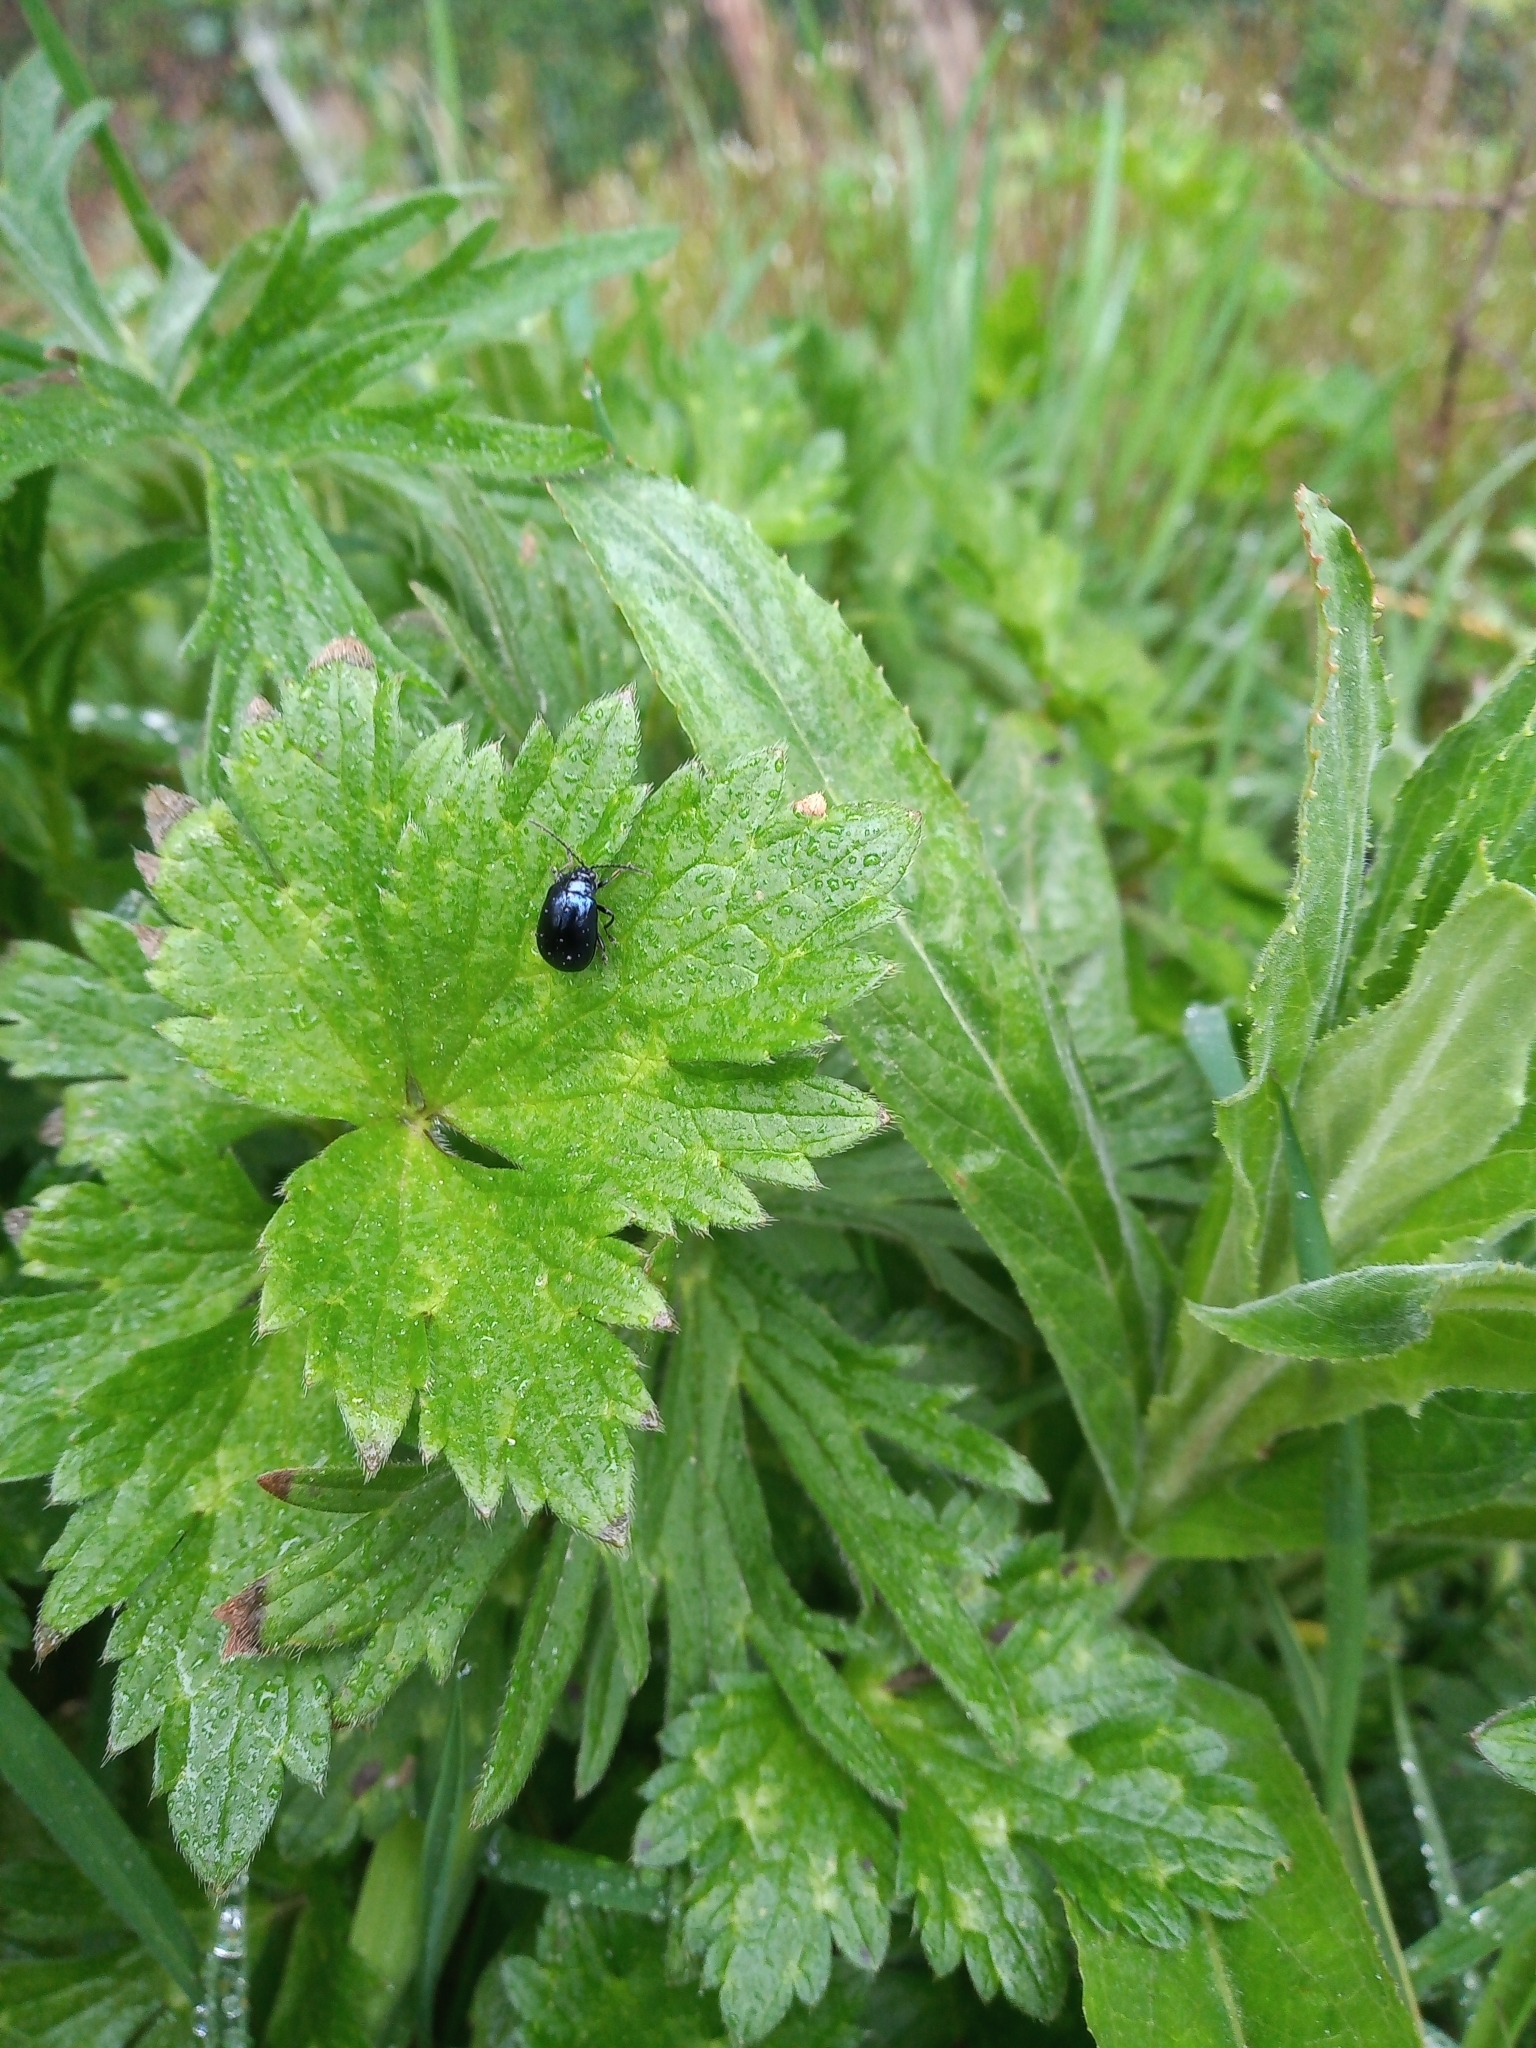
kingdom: Animalia
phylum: Arthropoda
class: Insecta
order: Coleoptera
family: Chrysomelidae
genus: Agelastica
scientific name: Agelastica alni
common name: Alder leaf beetle
